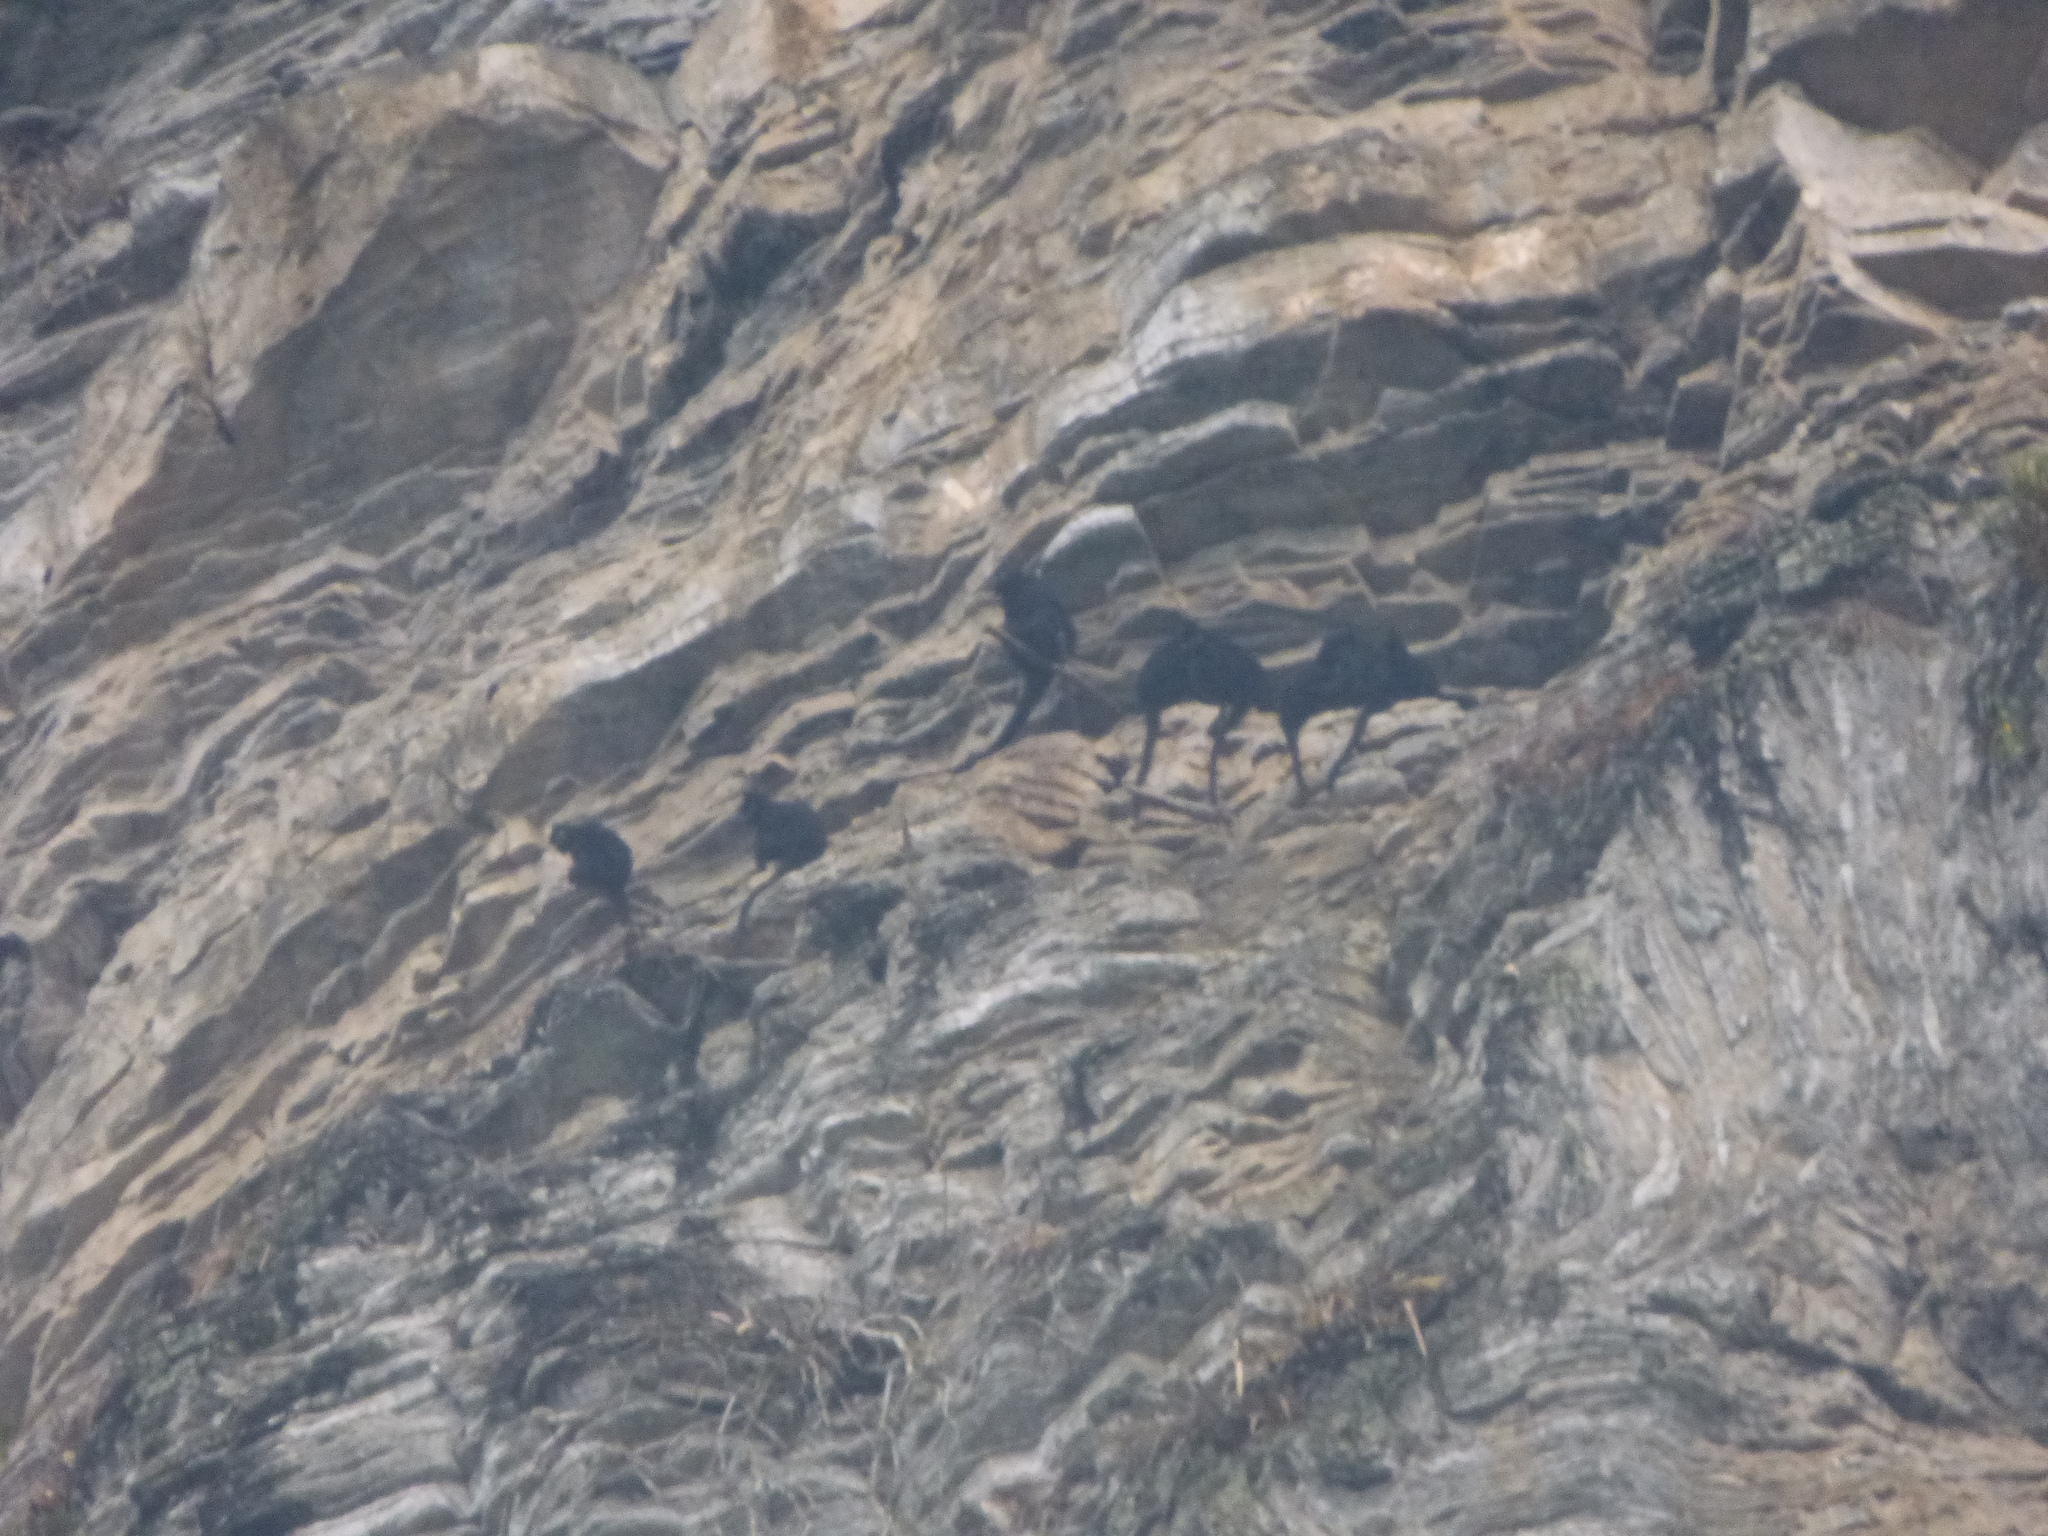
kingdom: Animalia
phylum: Chordata
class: Mammalia
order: Primates
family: Cercopithecidae
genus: Trachypithecus
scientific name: Trachypithecus francoisi
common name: Francois' langur
